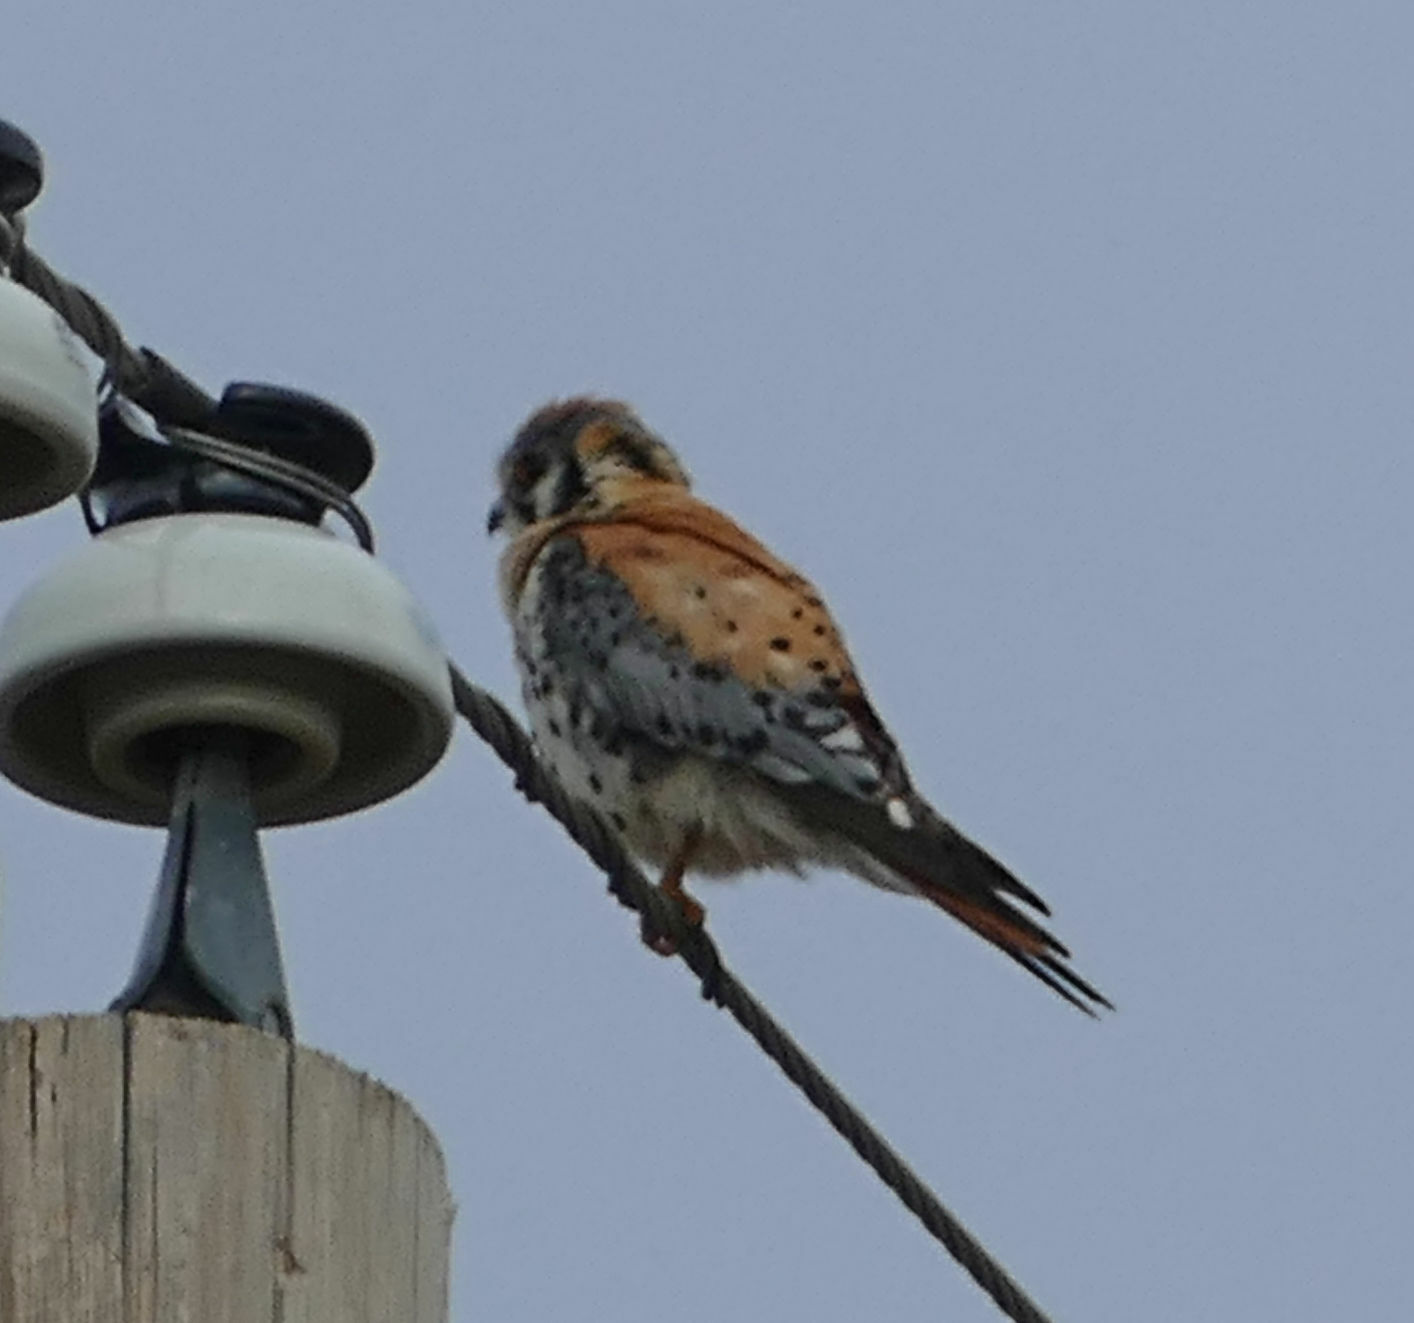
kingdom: Animalia
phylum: Chordata
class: Aves
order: Falconiformes
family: Falconidae
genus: Falco
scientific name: Falco sparverius
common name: American kestrel
